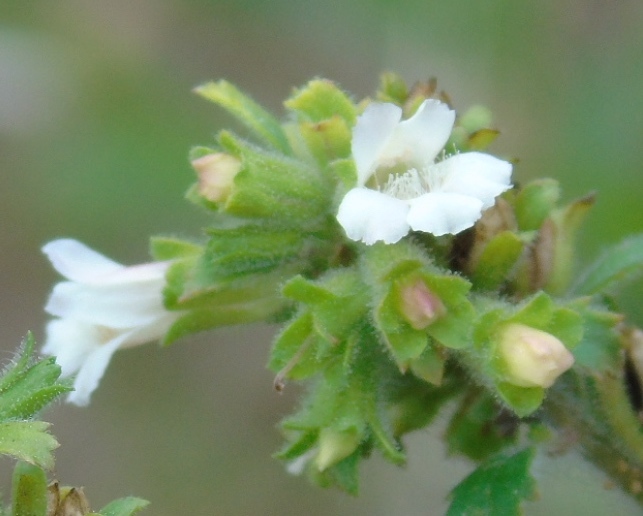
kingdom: Plantae
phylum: Tracheophyta
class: Magnoliopsida
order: Lamiales
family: Scrophulariaceae
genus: Capraria
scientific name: Capraria frutescens
